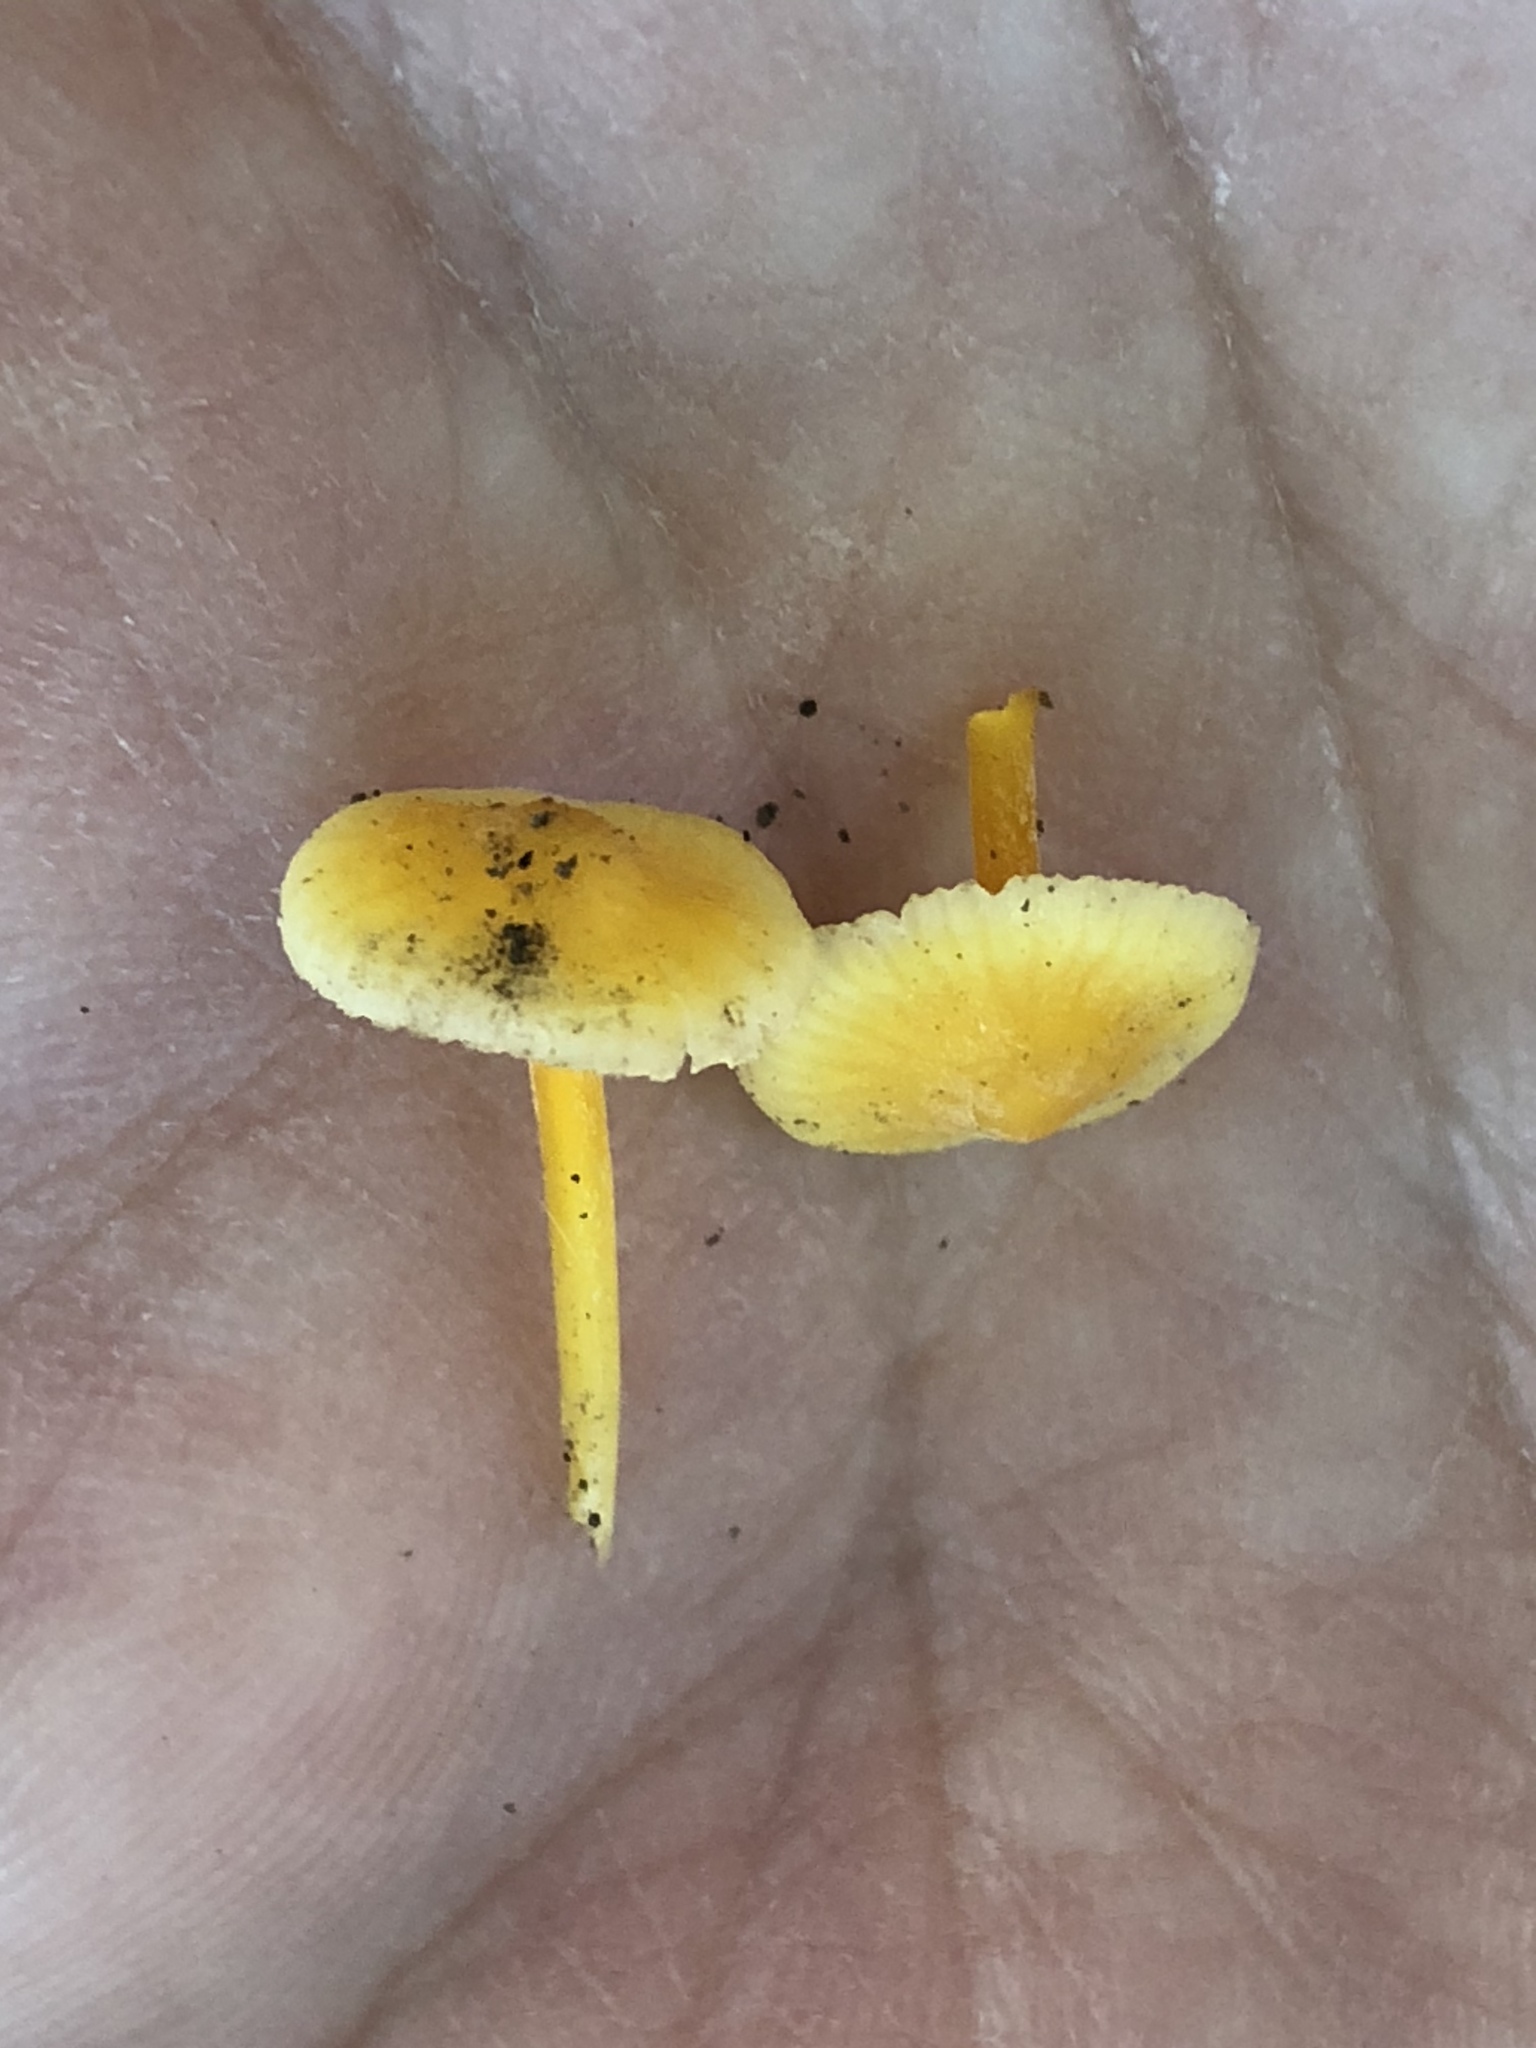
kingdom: Fungi
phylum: Basidiomycota
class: Agaricomycetes
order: Agaricales
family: Mycenaceae
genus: Mycena
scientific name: Mycena crocea
